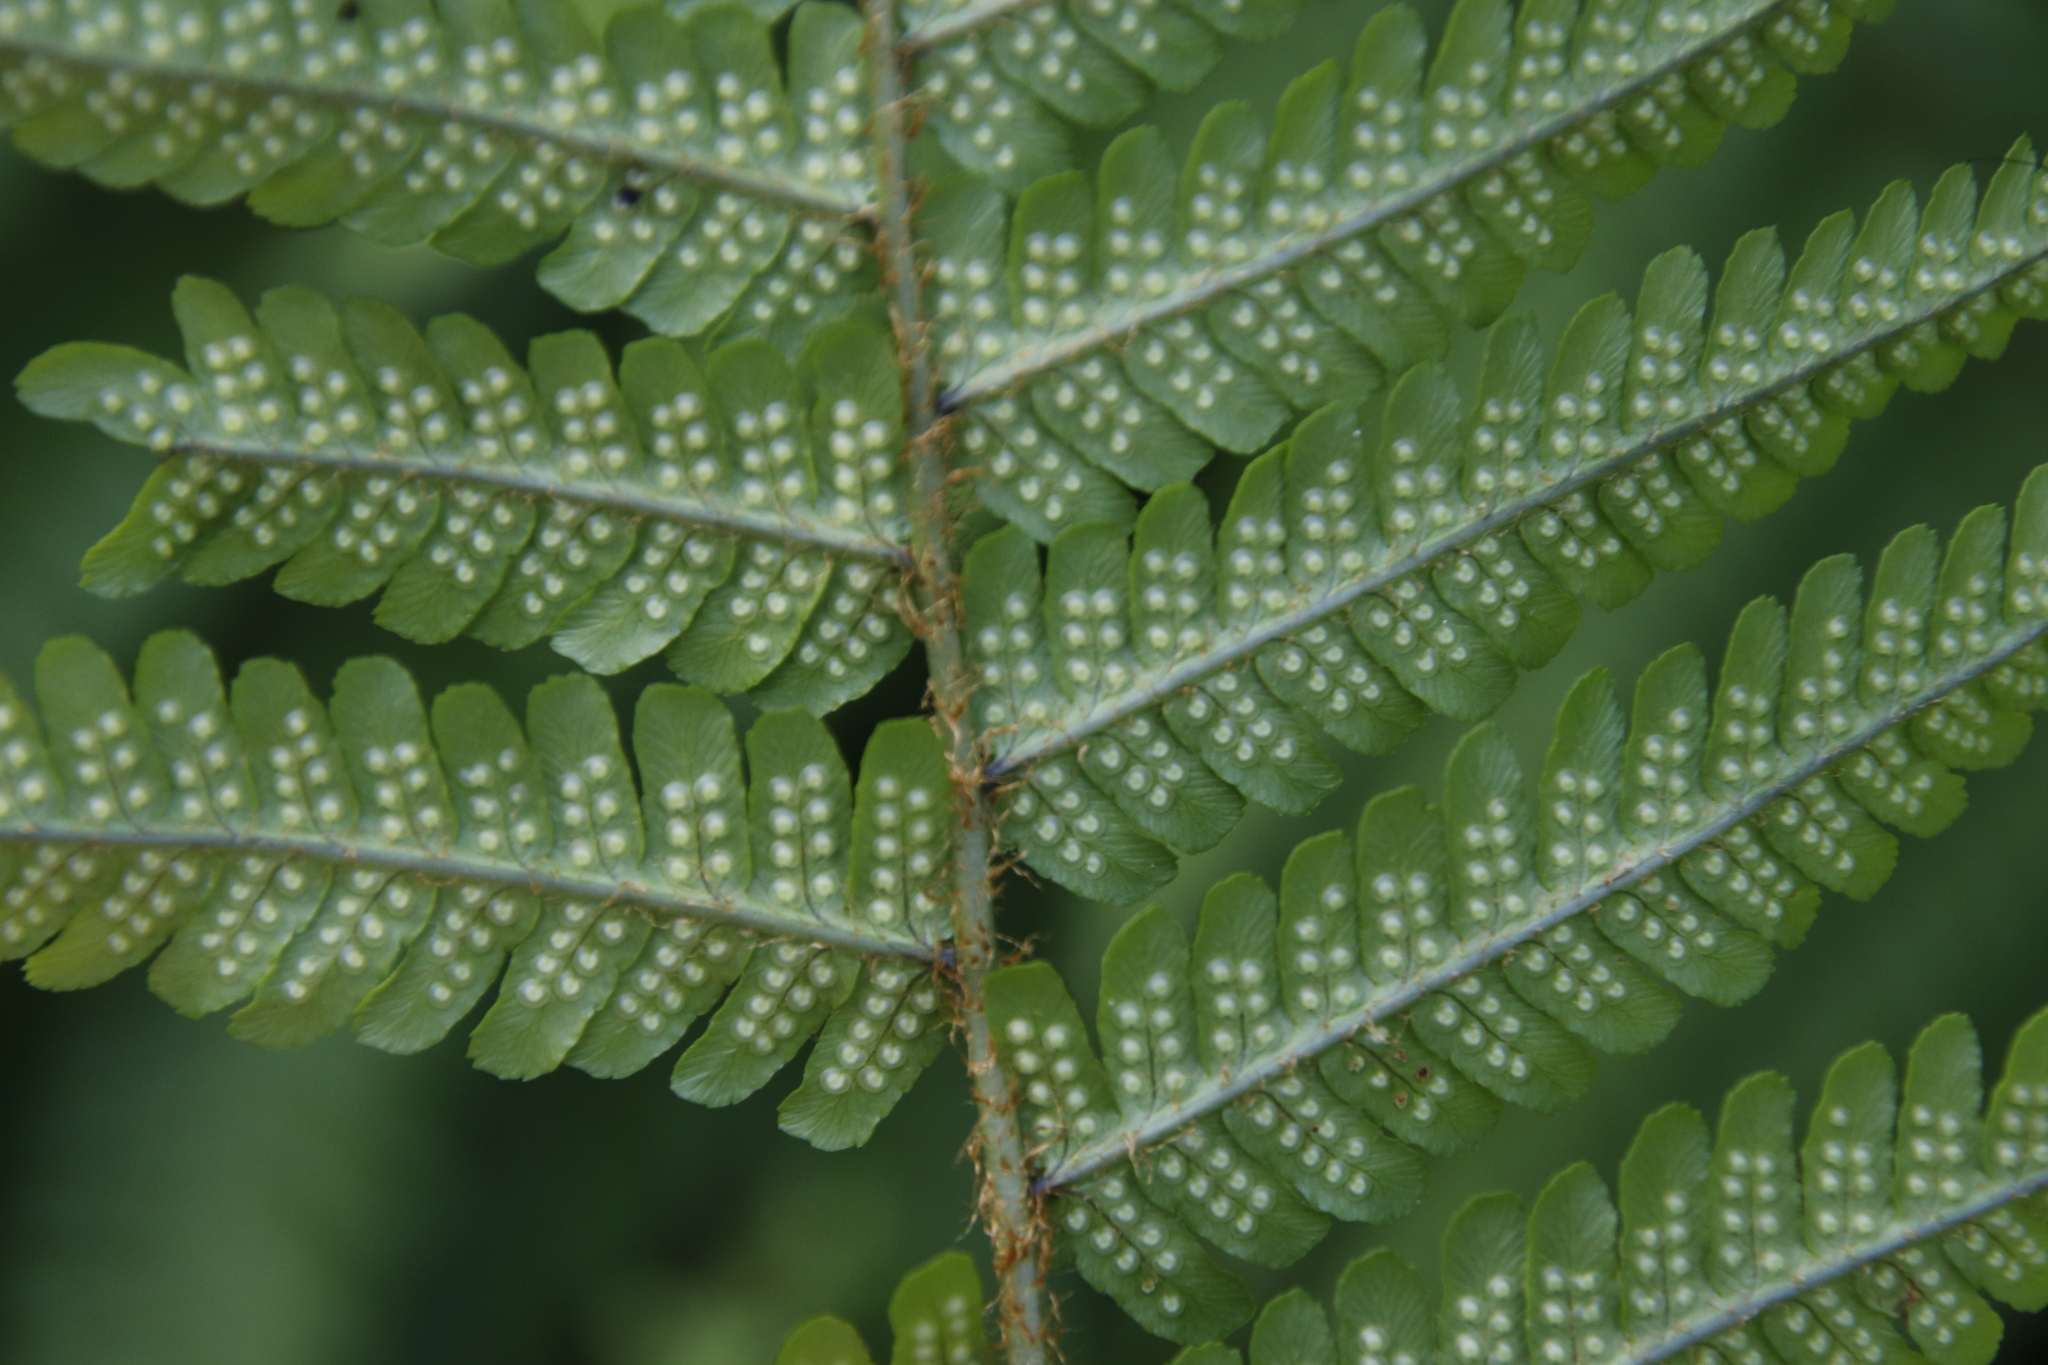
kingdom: Plantae
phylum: Tracheophyta
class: Polypodiopsida
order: Polypodiales
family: Dryopteridaceae
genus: Dryopteris
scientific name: Dryopteris cambrensis
